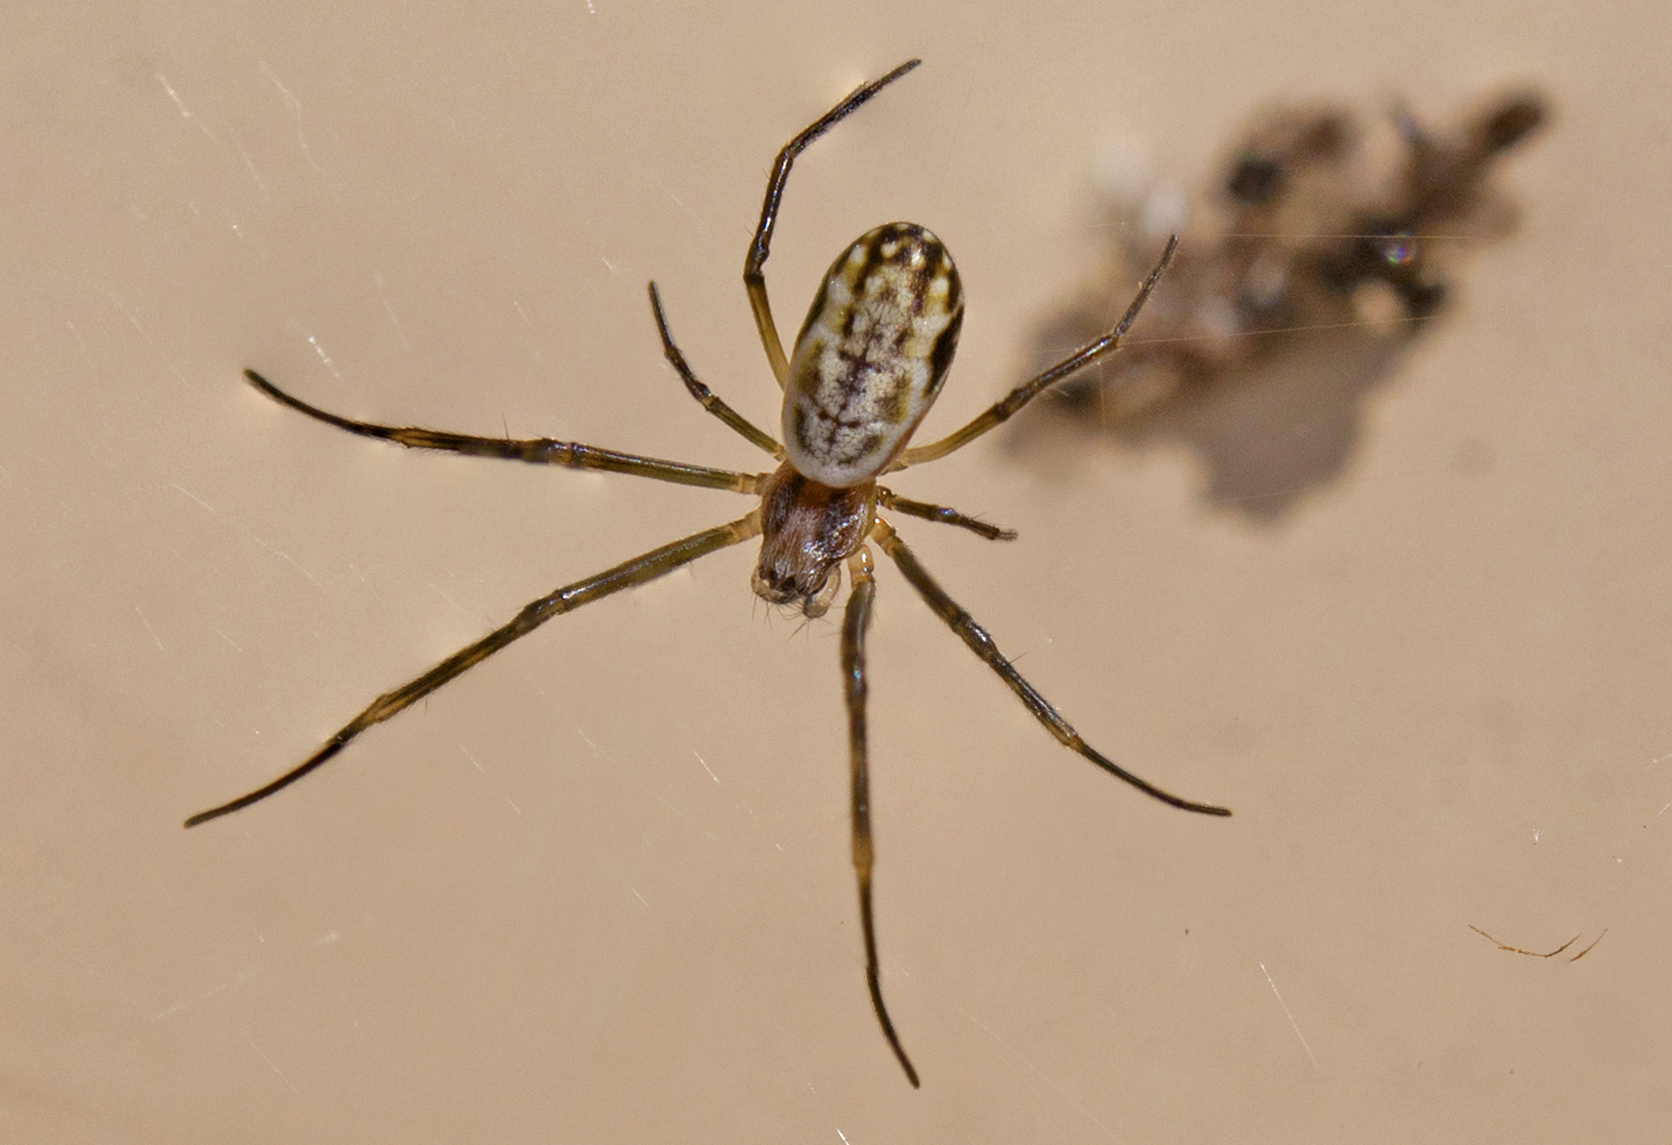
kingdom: Animalia
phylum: Arthropoda
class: Arachnida
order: Araneae
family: Araneidae
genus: Trichonephila
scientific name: Trichonephila plumipes
